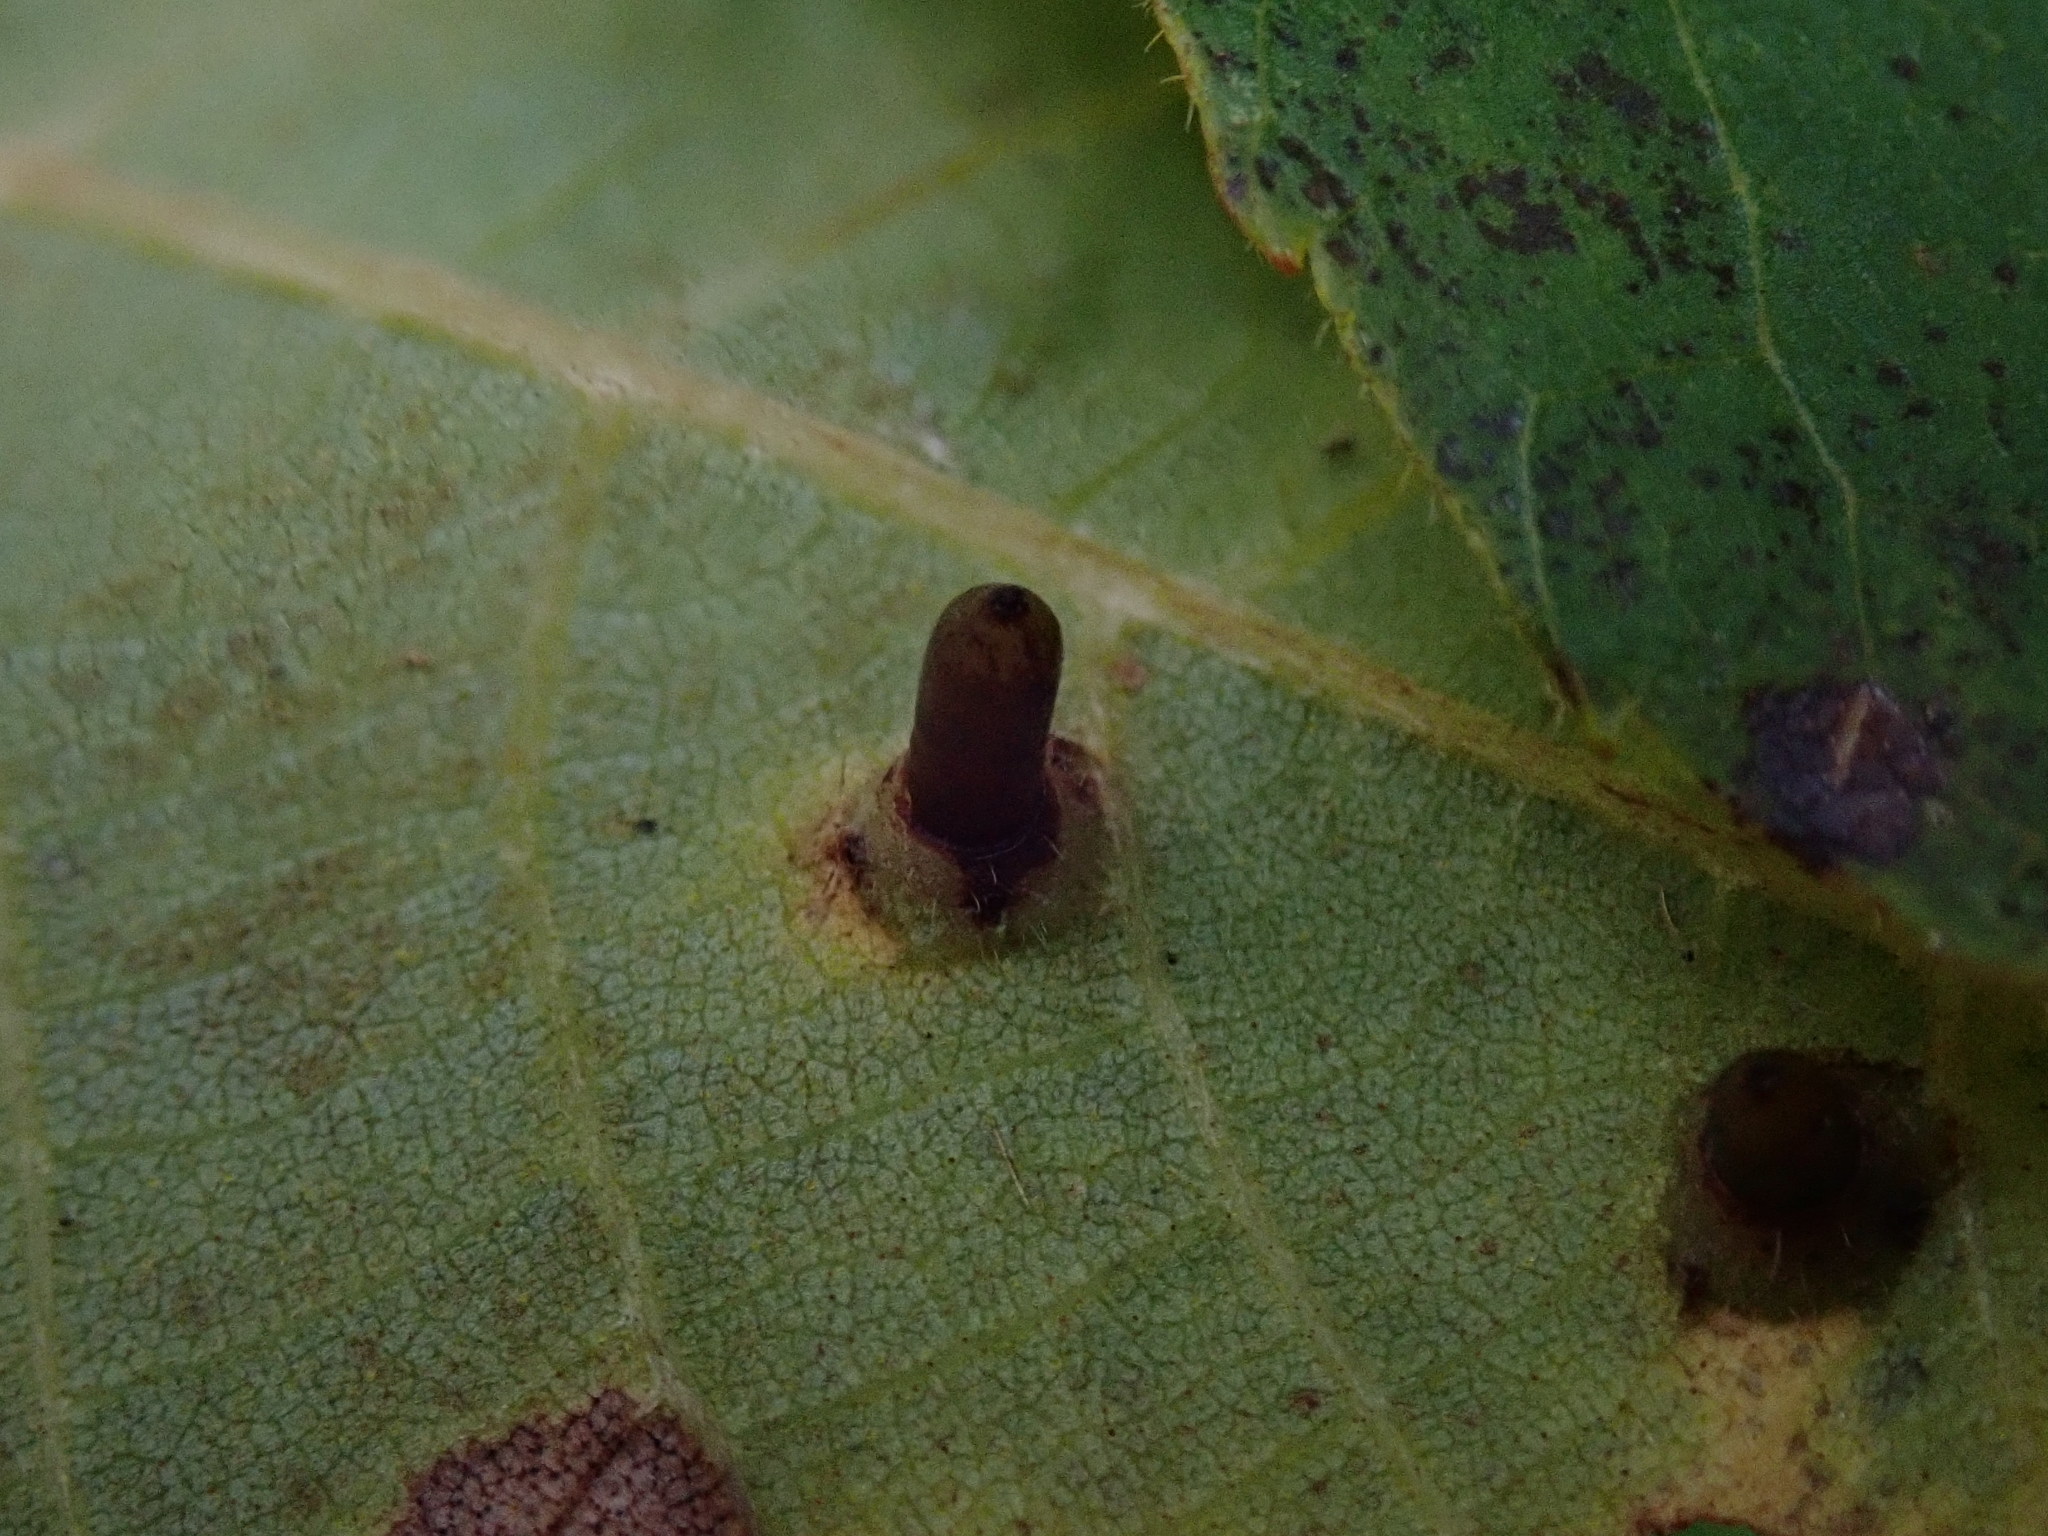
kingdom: Animalia
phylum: Arthropoda
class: Insecta
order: Diptera
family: Cecidomyiidae
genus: Caryomyia
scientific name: Caryomyia tubicola
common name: Hickory bullet gall midge
